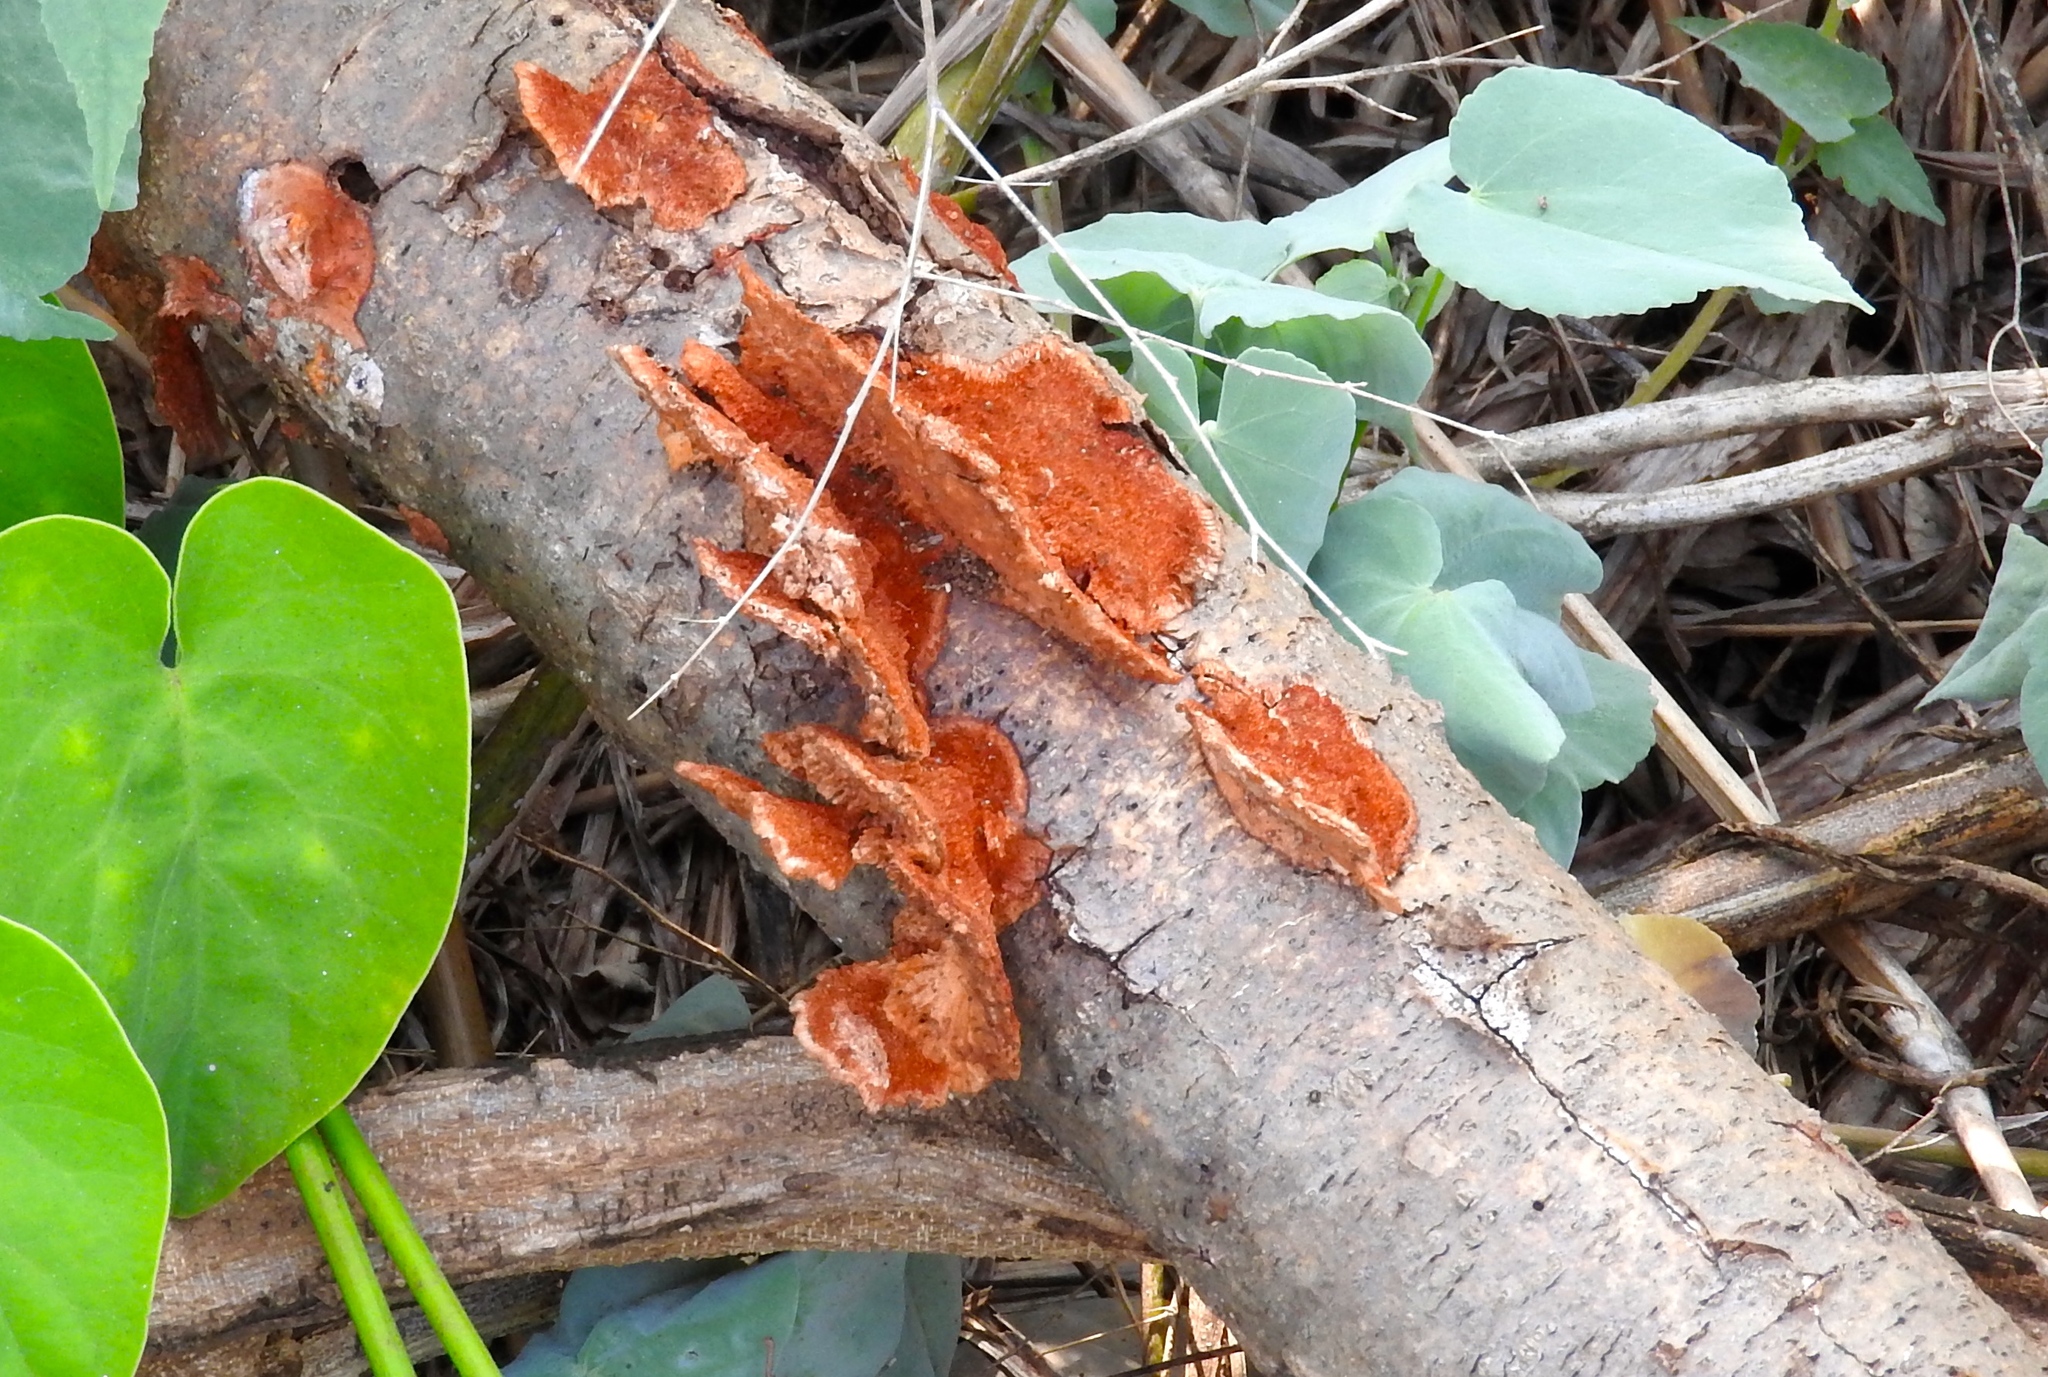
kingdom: Fungi
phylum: Basidiomycota
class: Agaricomycetes
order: Polyporales
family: Polyporaceae
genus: Trametes
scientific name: Trametes
